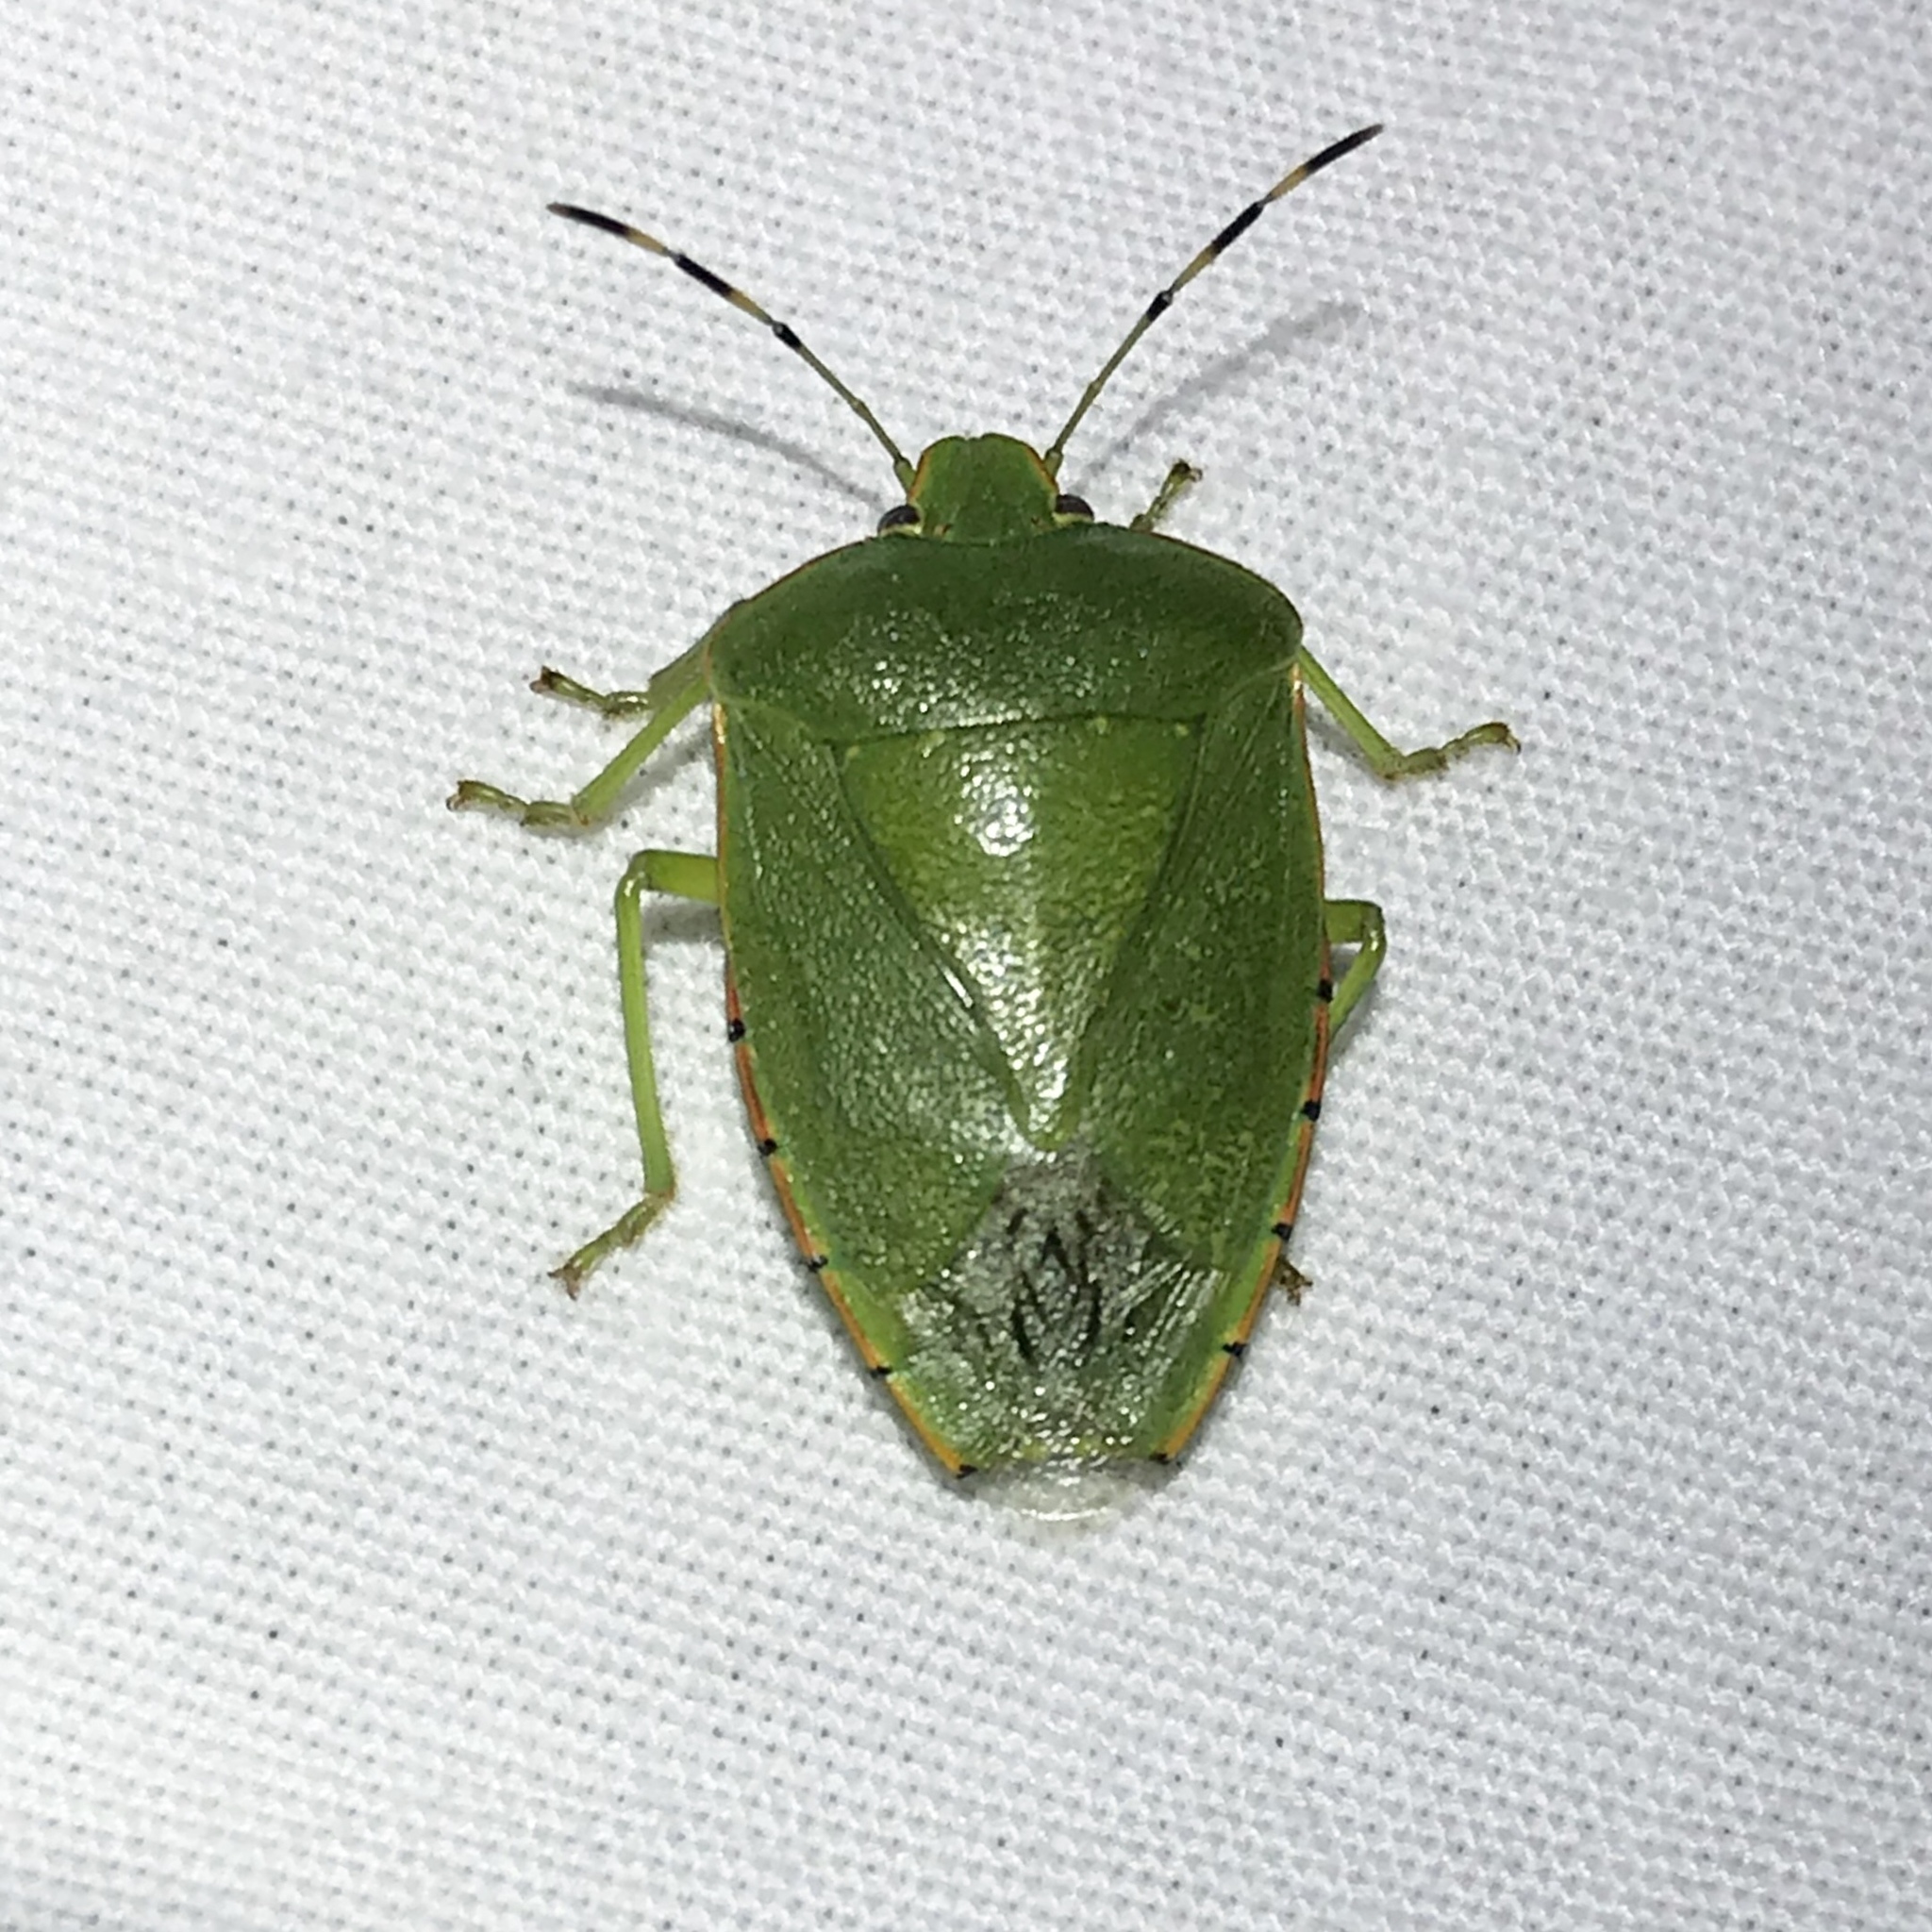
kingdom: Animalia
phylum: Arthropoda
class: Insecta
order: Hemiptera
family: Pentatomidae
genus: Chinavia
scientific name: Chinavia hilaris
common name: Green stink bug
